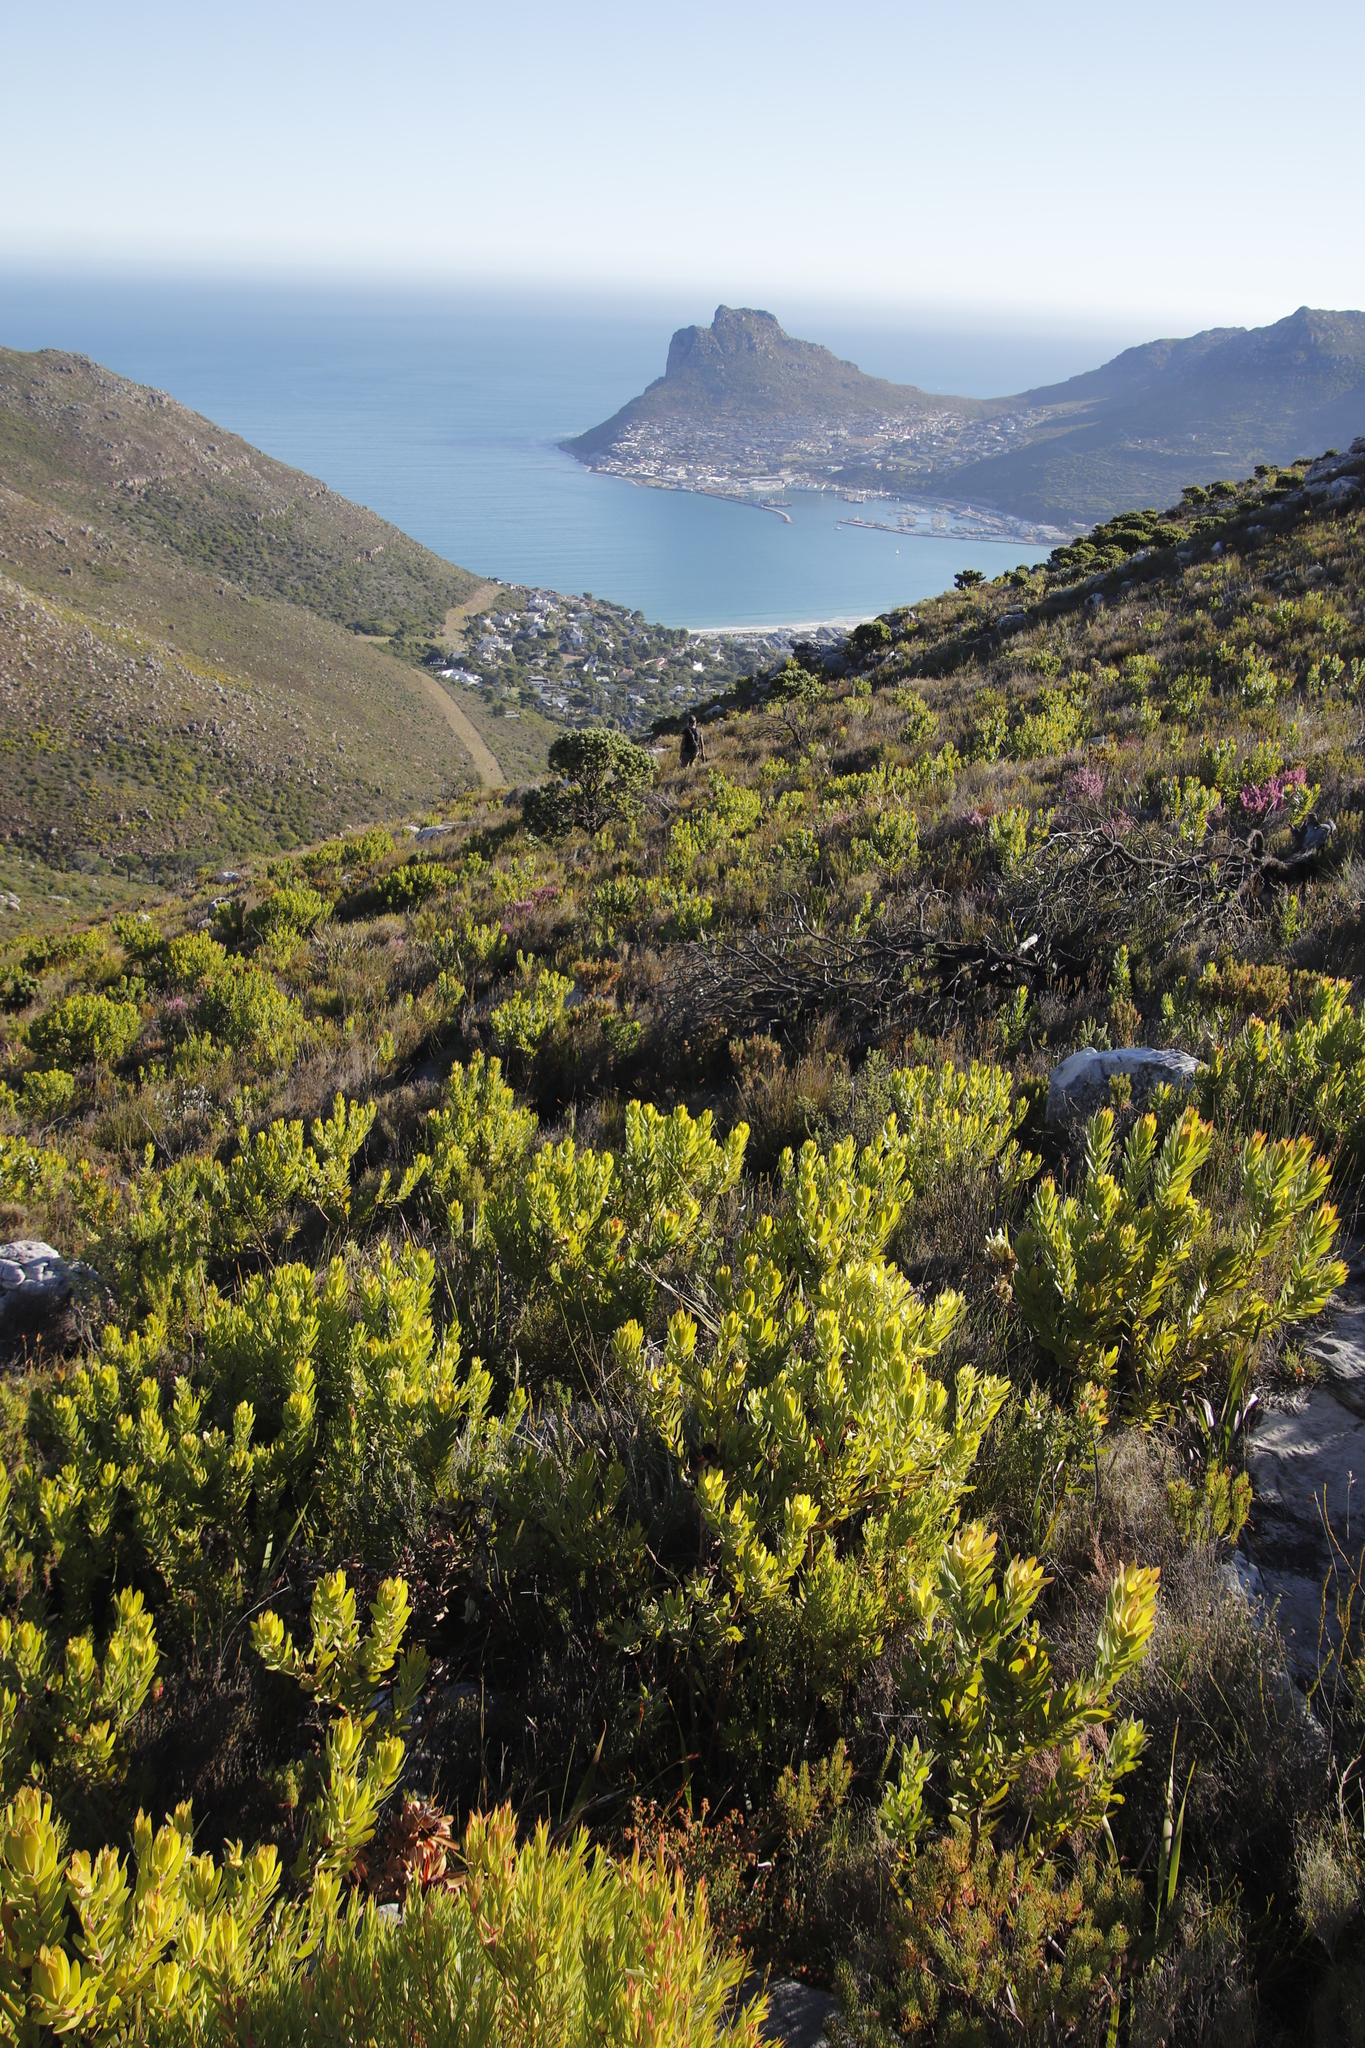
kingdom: Plantae
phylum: Tracheophyta
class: Magnoliopsida
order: Proteales
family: Proteaceae
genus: Leucadendron
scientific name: Leucadendron laureolum
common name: Golden sunshinebush
